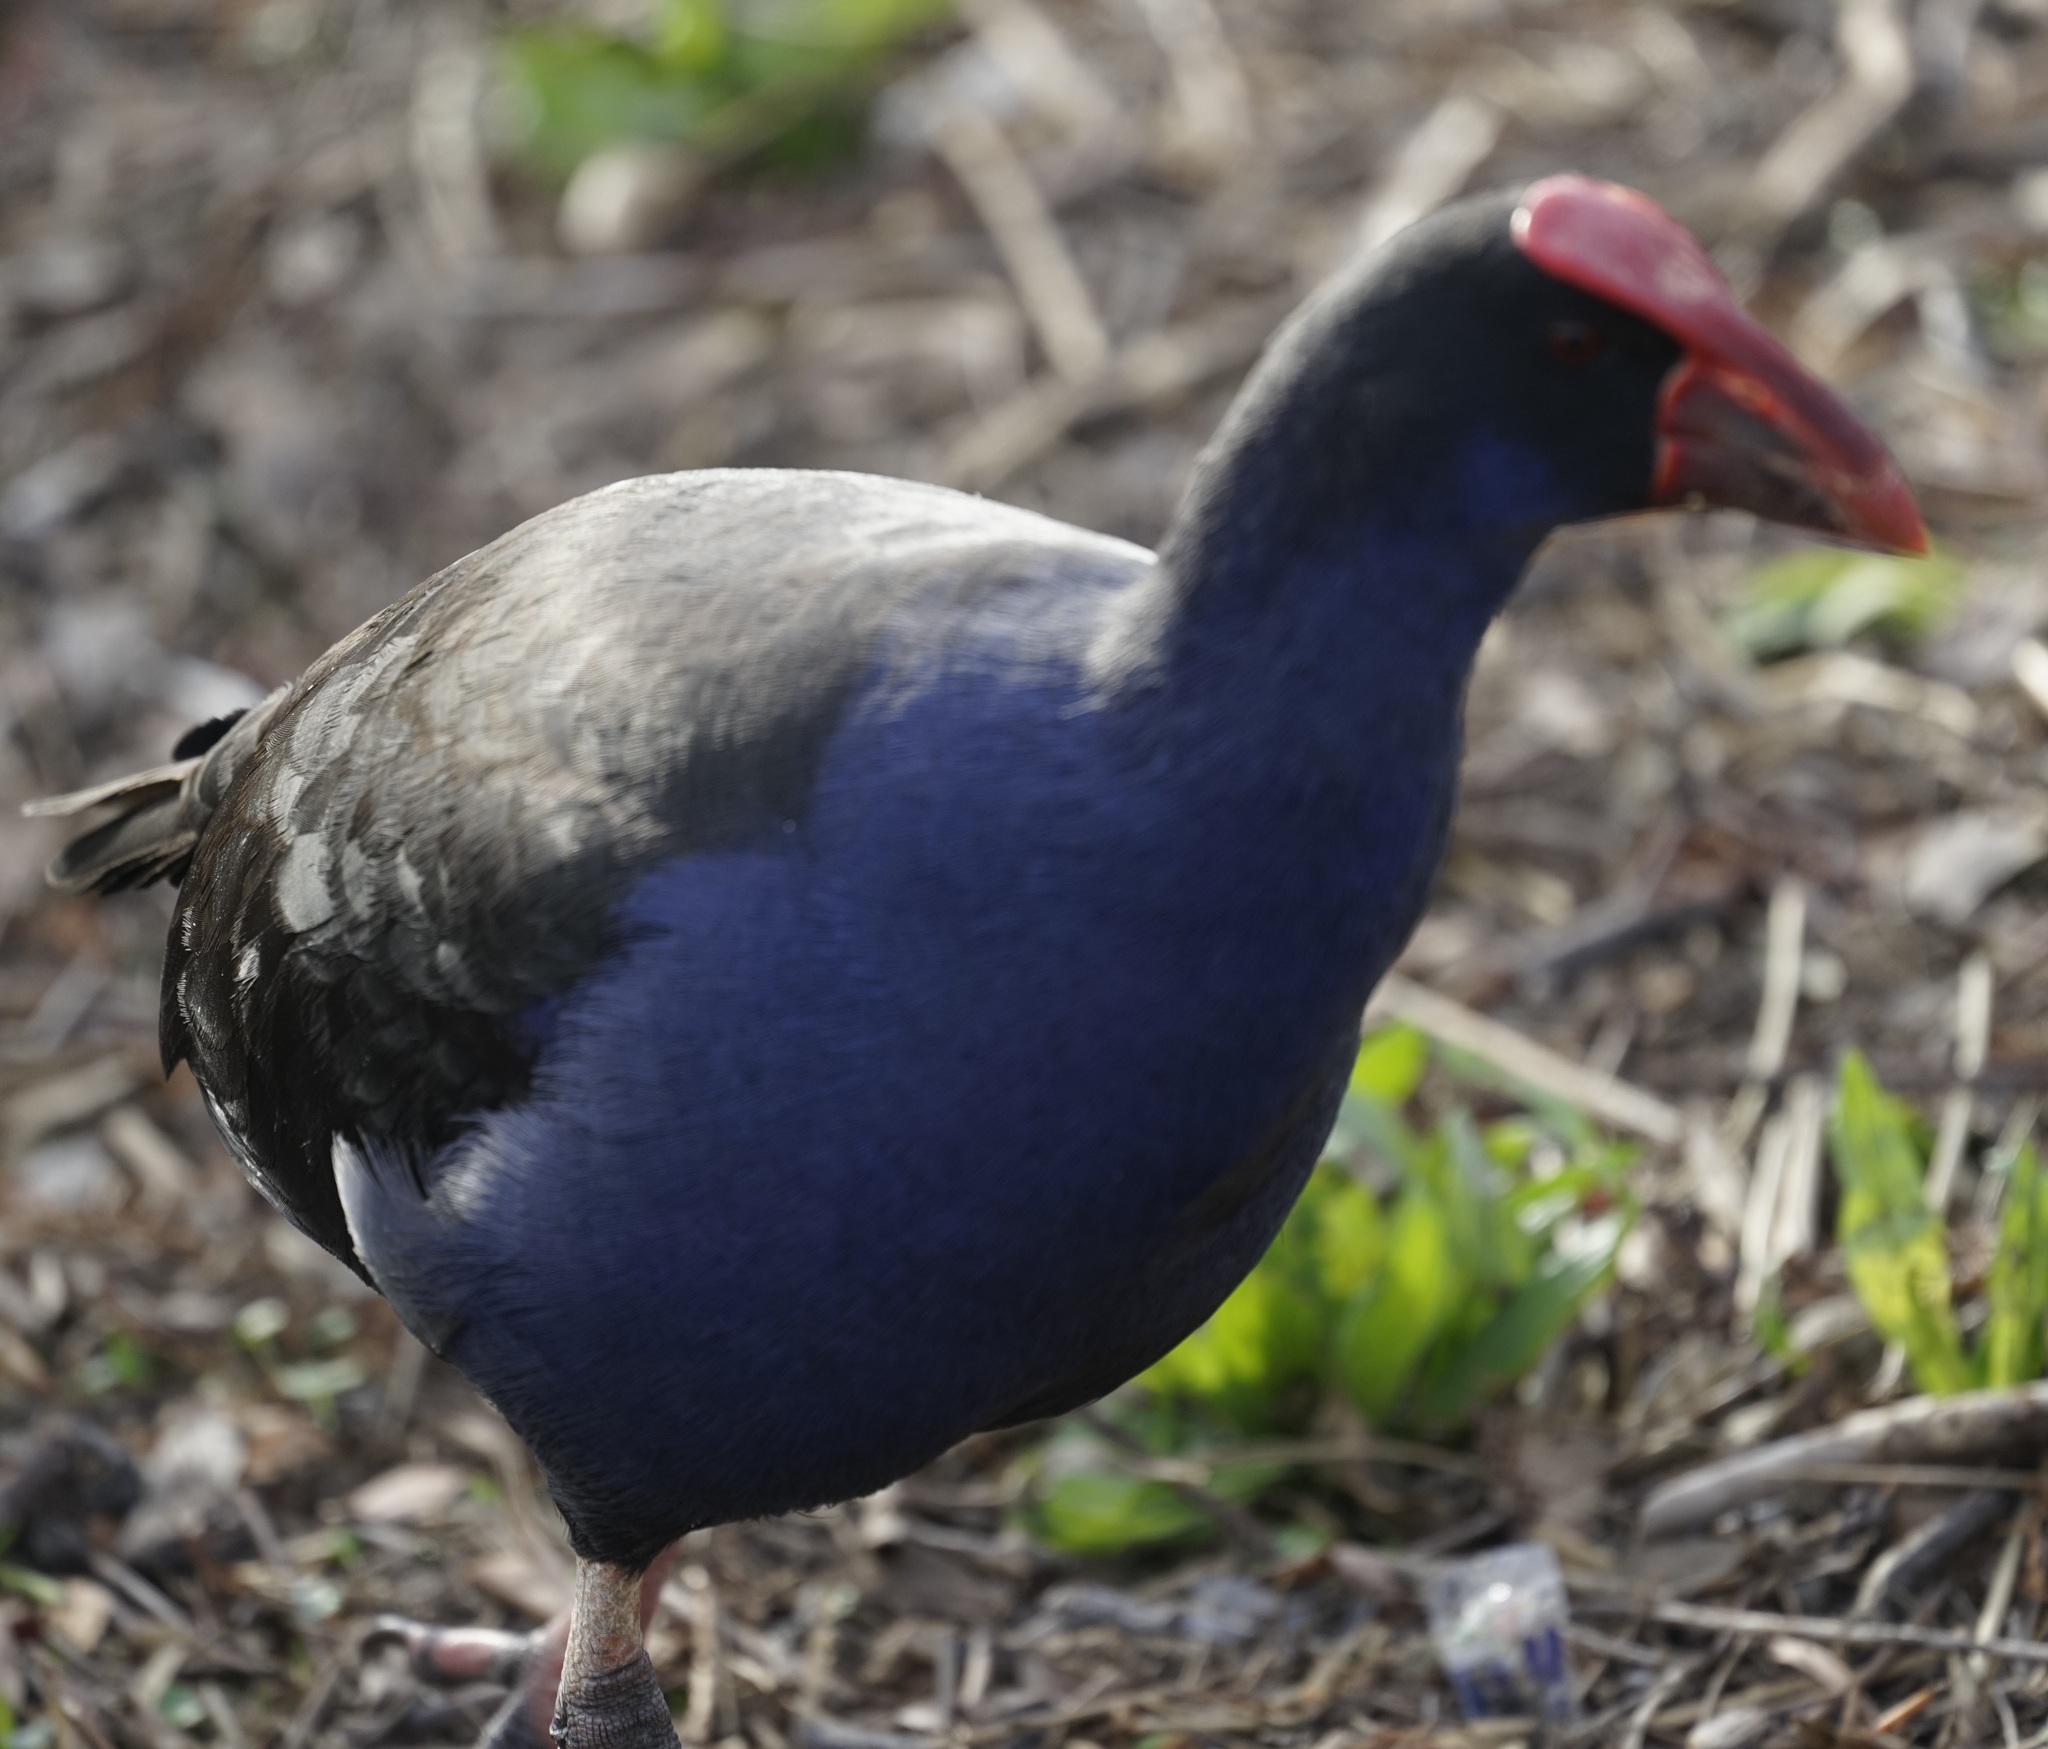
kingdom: Animalia
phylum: Chordata
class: Aves
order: Gruiformes
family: Rallidae
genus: Porphyrio
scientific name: Porphyrio melanotus
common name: Australasian swamphen
